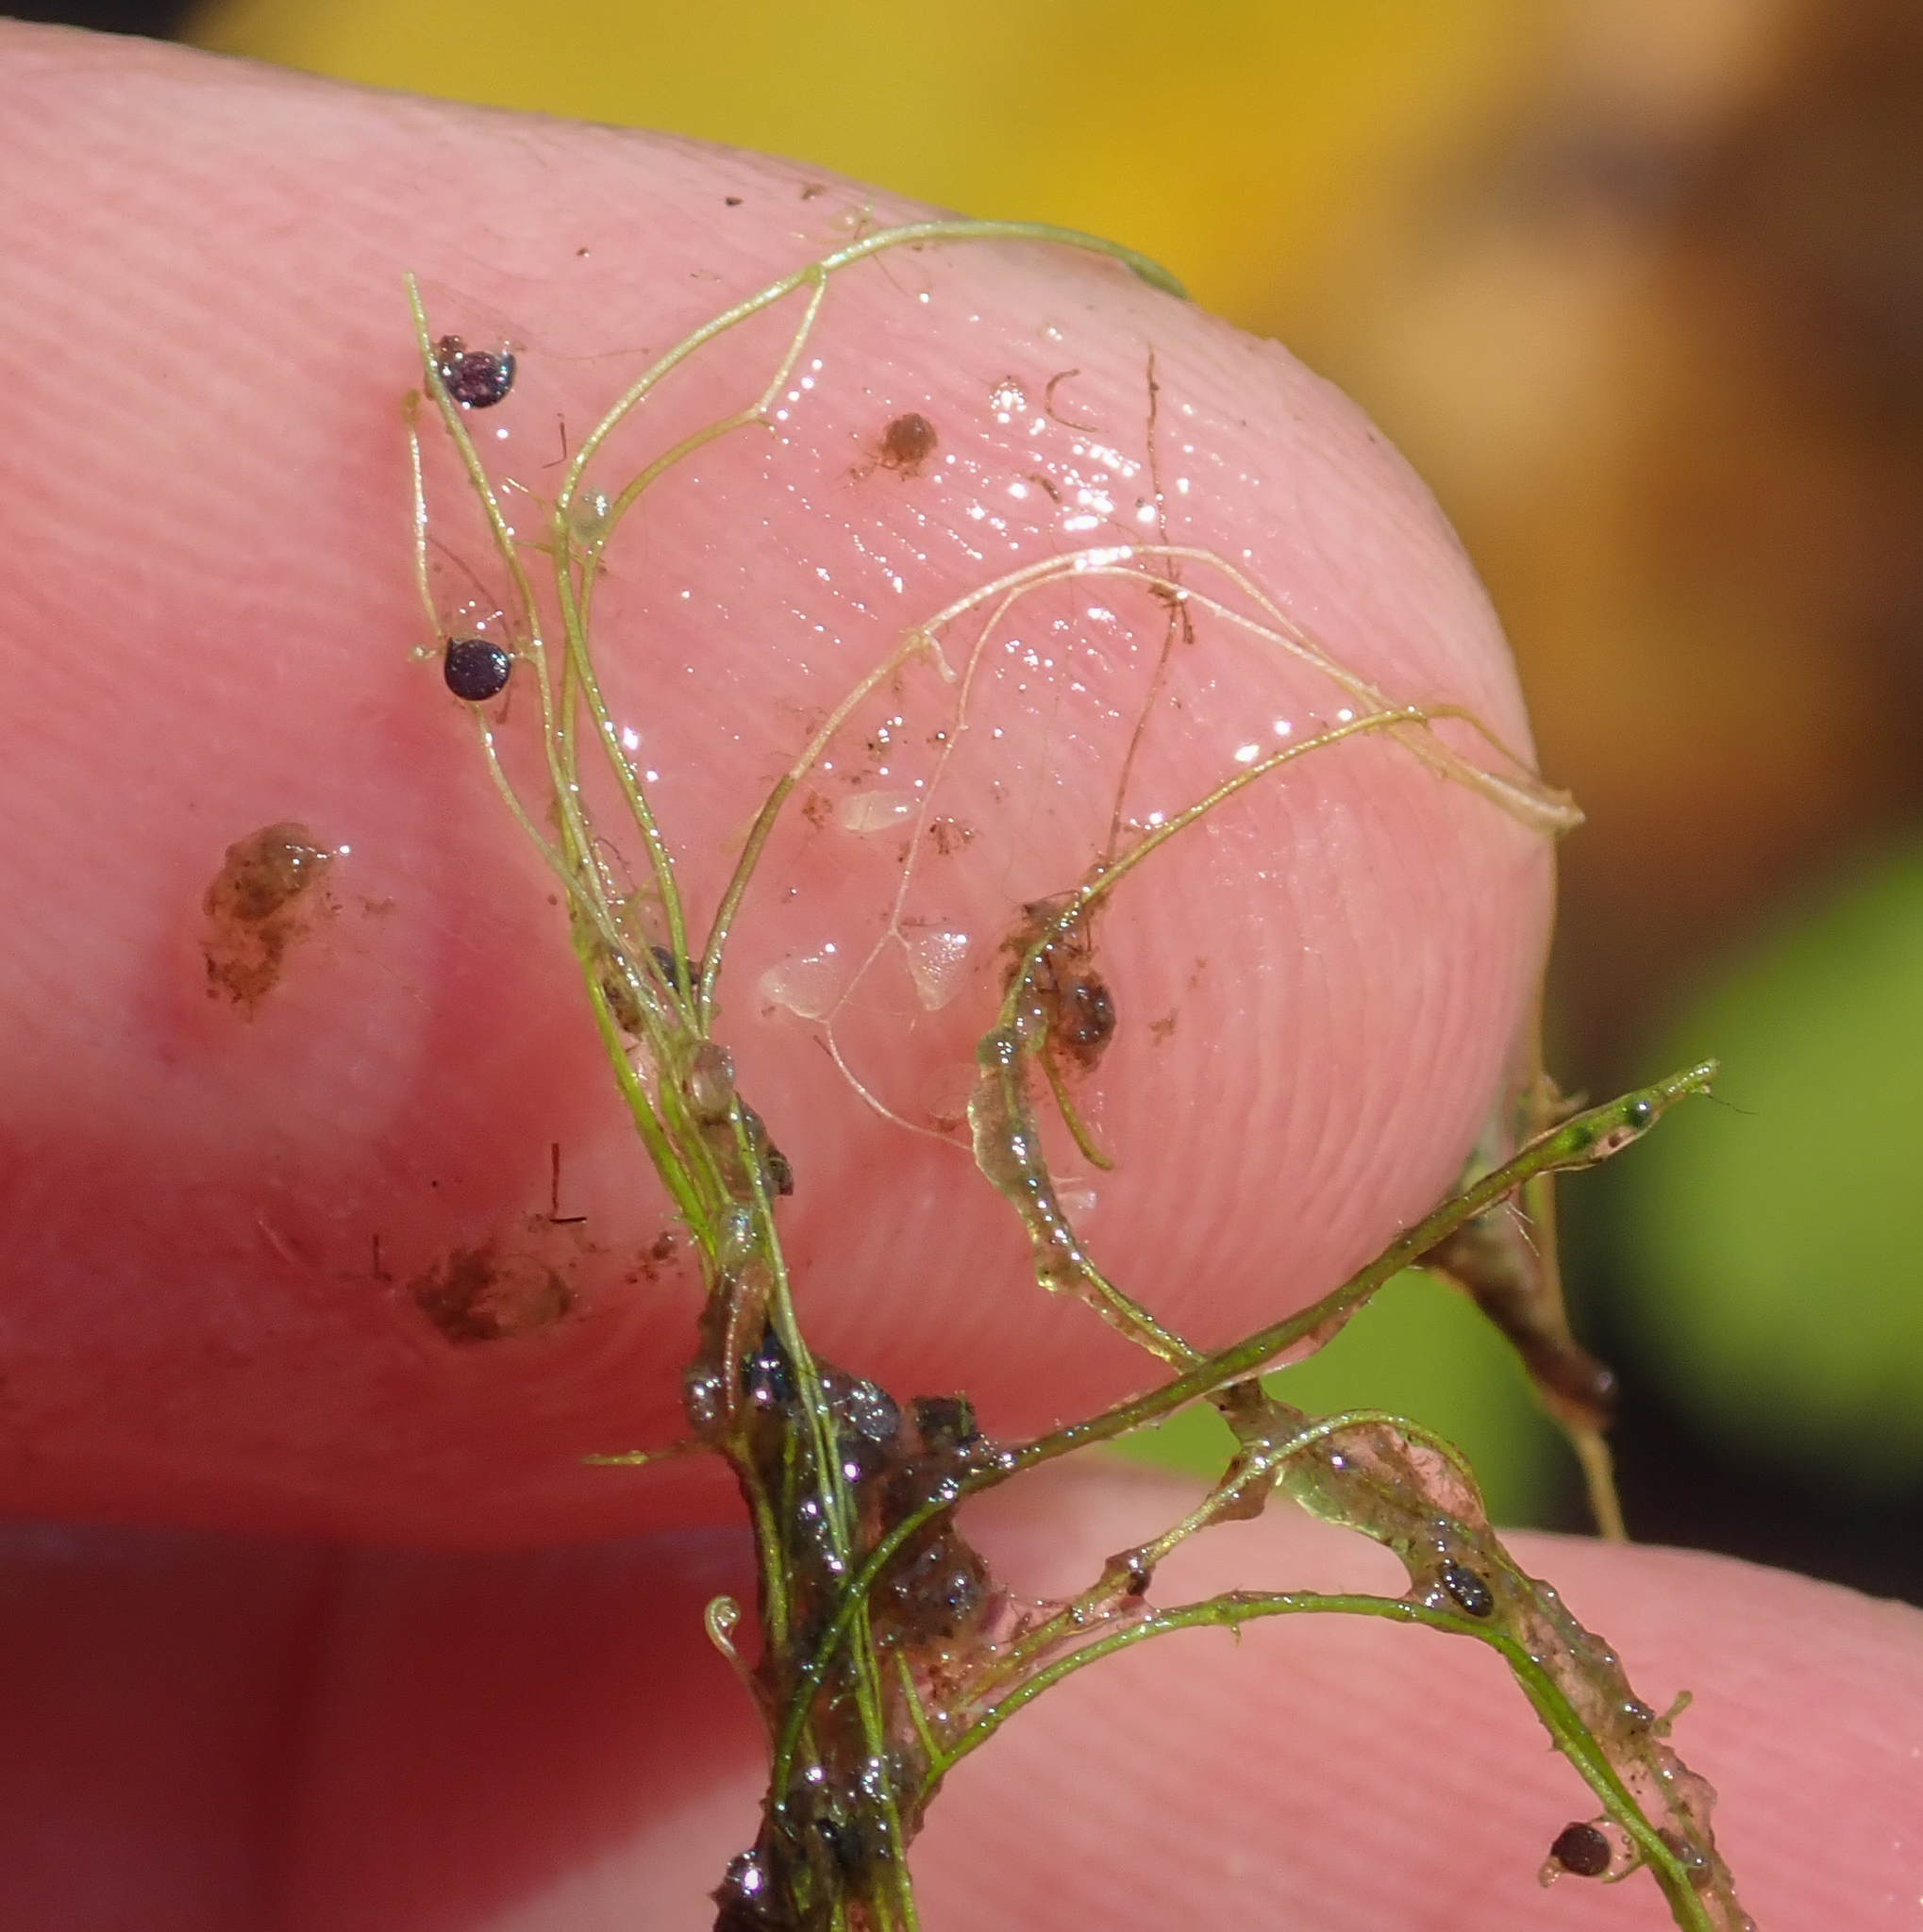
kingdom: Plantae
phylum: Tracheophyta
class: Magnoliopsida
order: Lamiales
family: Lentibulariaceae
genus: Utricularia
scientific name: Utricularia gibba
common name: Humped bladderwort
